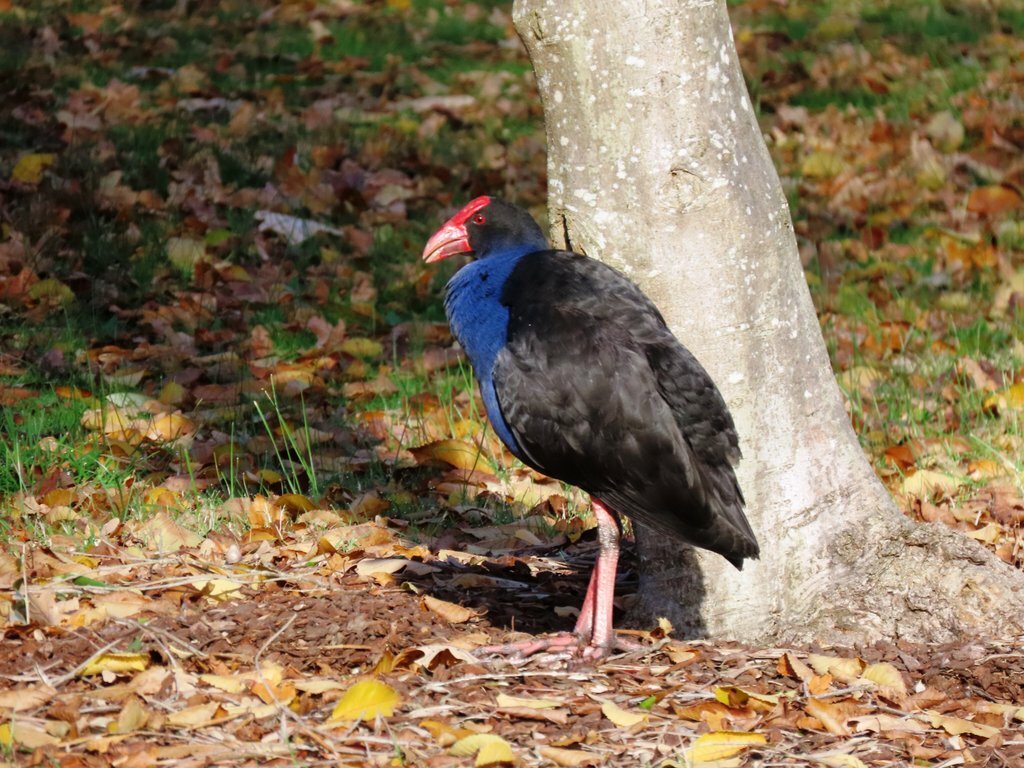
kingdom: Animalia
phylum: Chordata
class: Aves
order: Gruiformes
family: Rallidae
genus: Porphyrio
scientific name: Porphyrio melanotus
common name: Australasian swamphen
